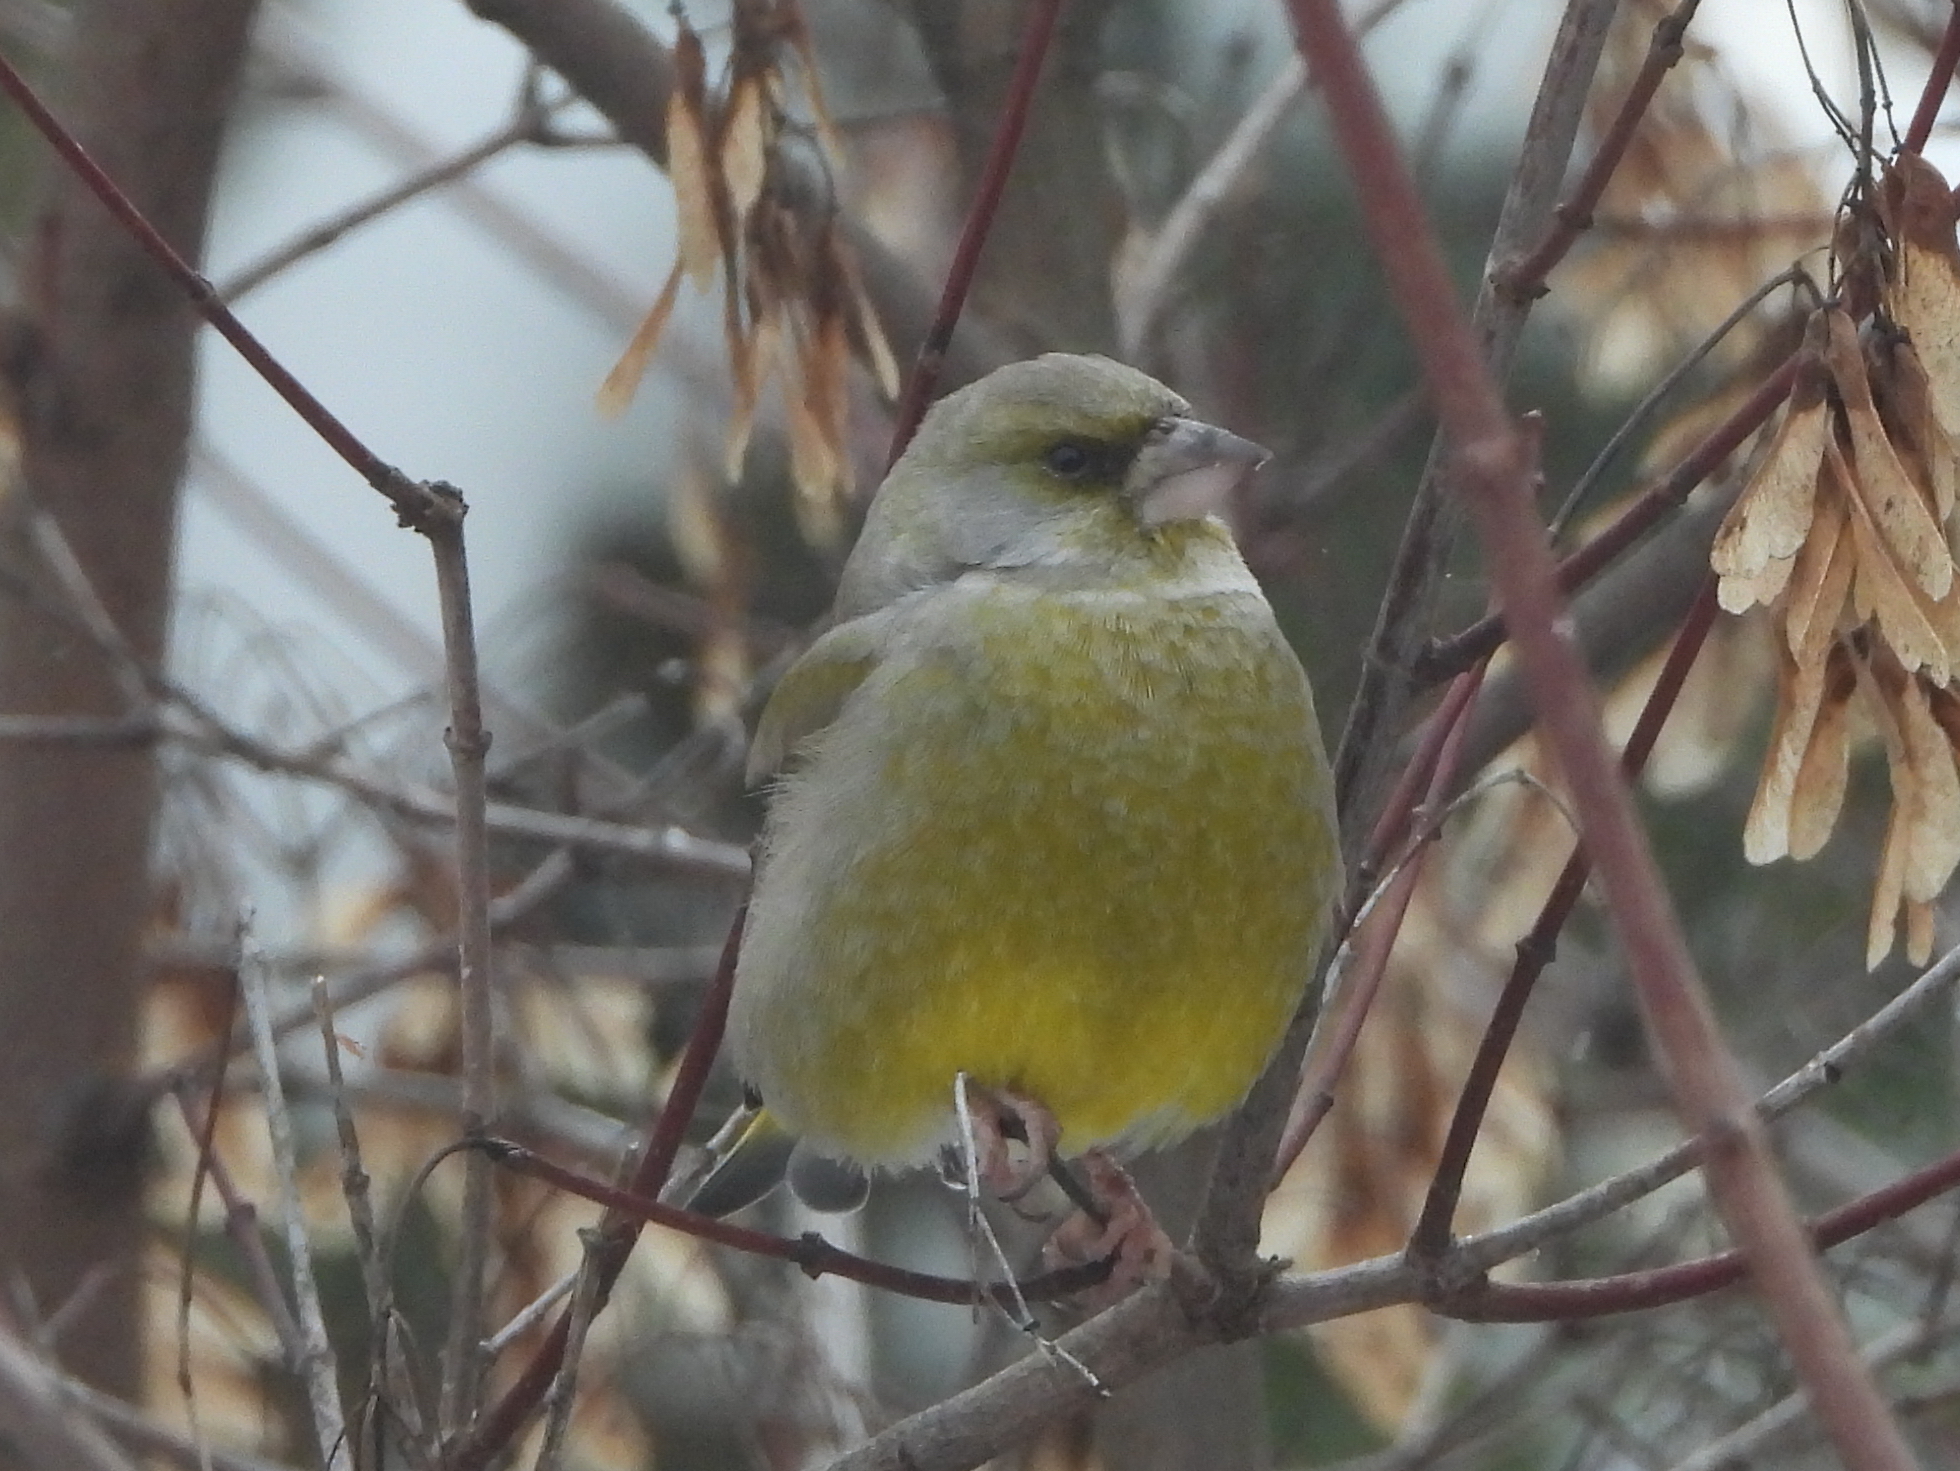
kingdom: Plantae
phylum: Tracheophyta
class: Liliopsida
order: Poales
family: Poaceae
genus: Chloris
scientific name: Chloris chloris
